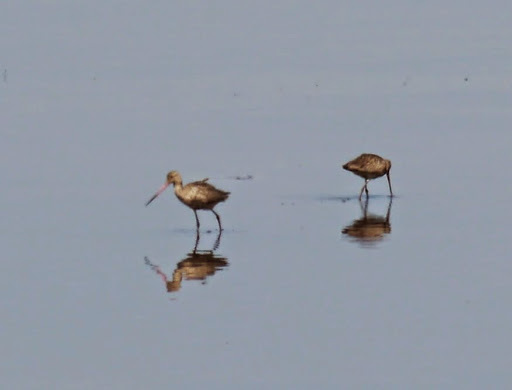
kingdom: Animalia
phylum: Chordata
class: Aves
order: Charadriiformes
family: Scolopacidae
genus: Limosa
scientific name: Limosa fedoa
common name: Marbled godwit
